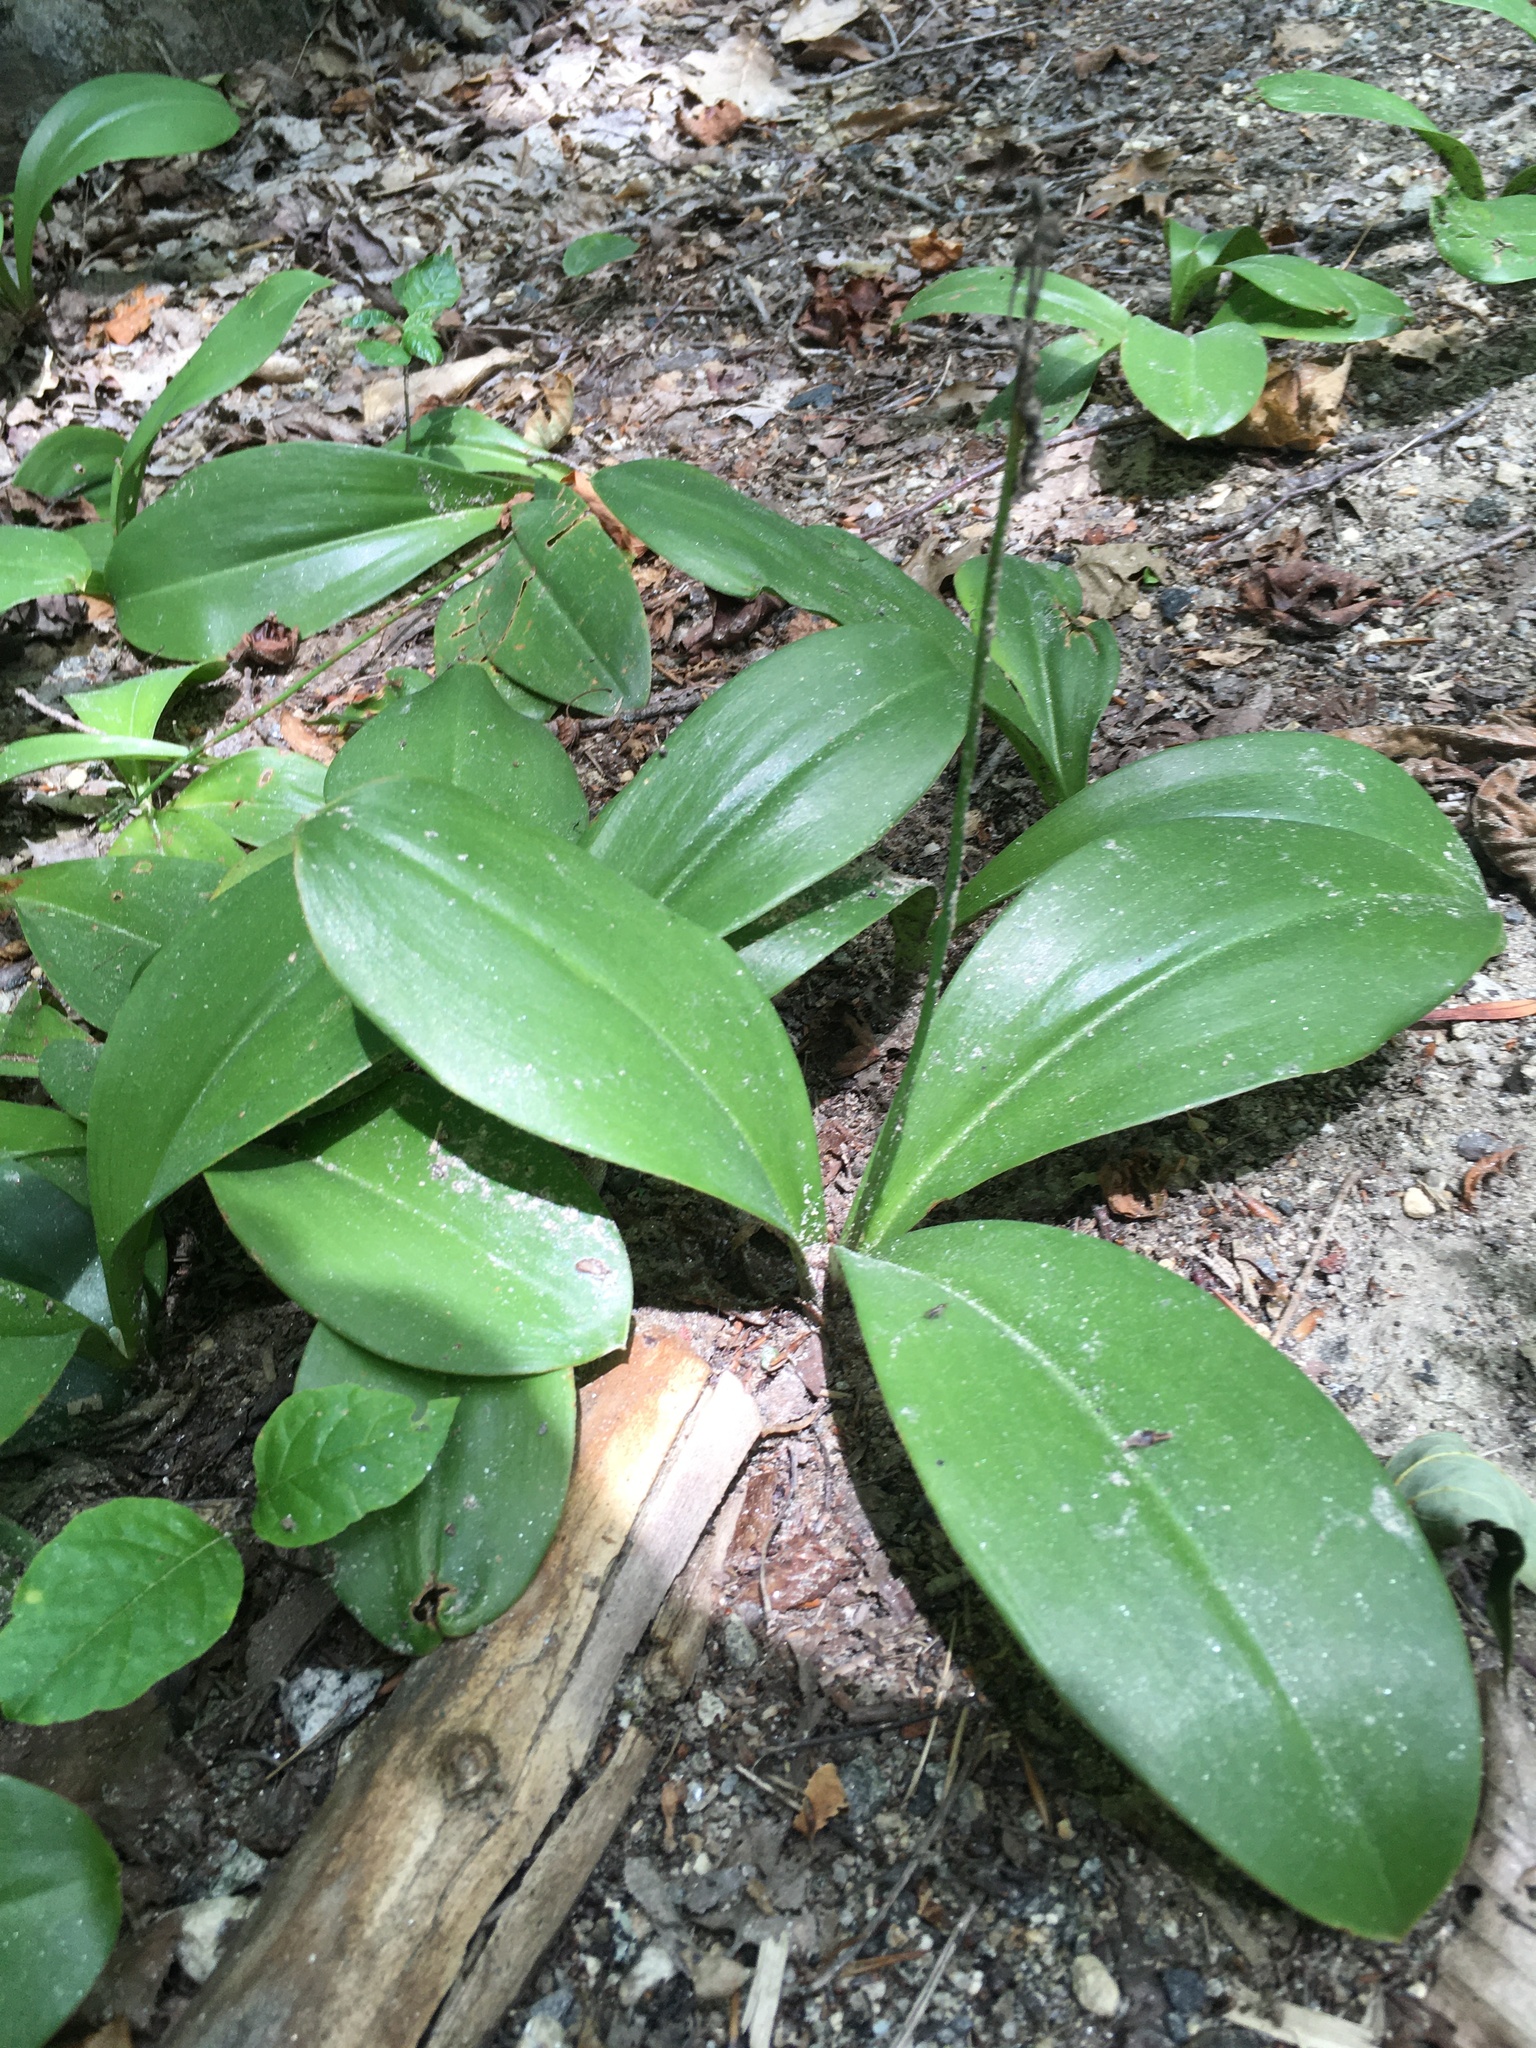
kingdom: Plantae
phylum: Tracheophyta
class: Liliopsida
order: Liliales
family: Liliaceae
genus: Clintonia
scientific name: Clintonia borealis
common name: Yellow clintonia
